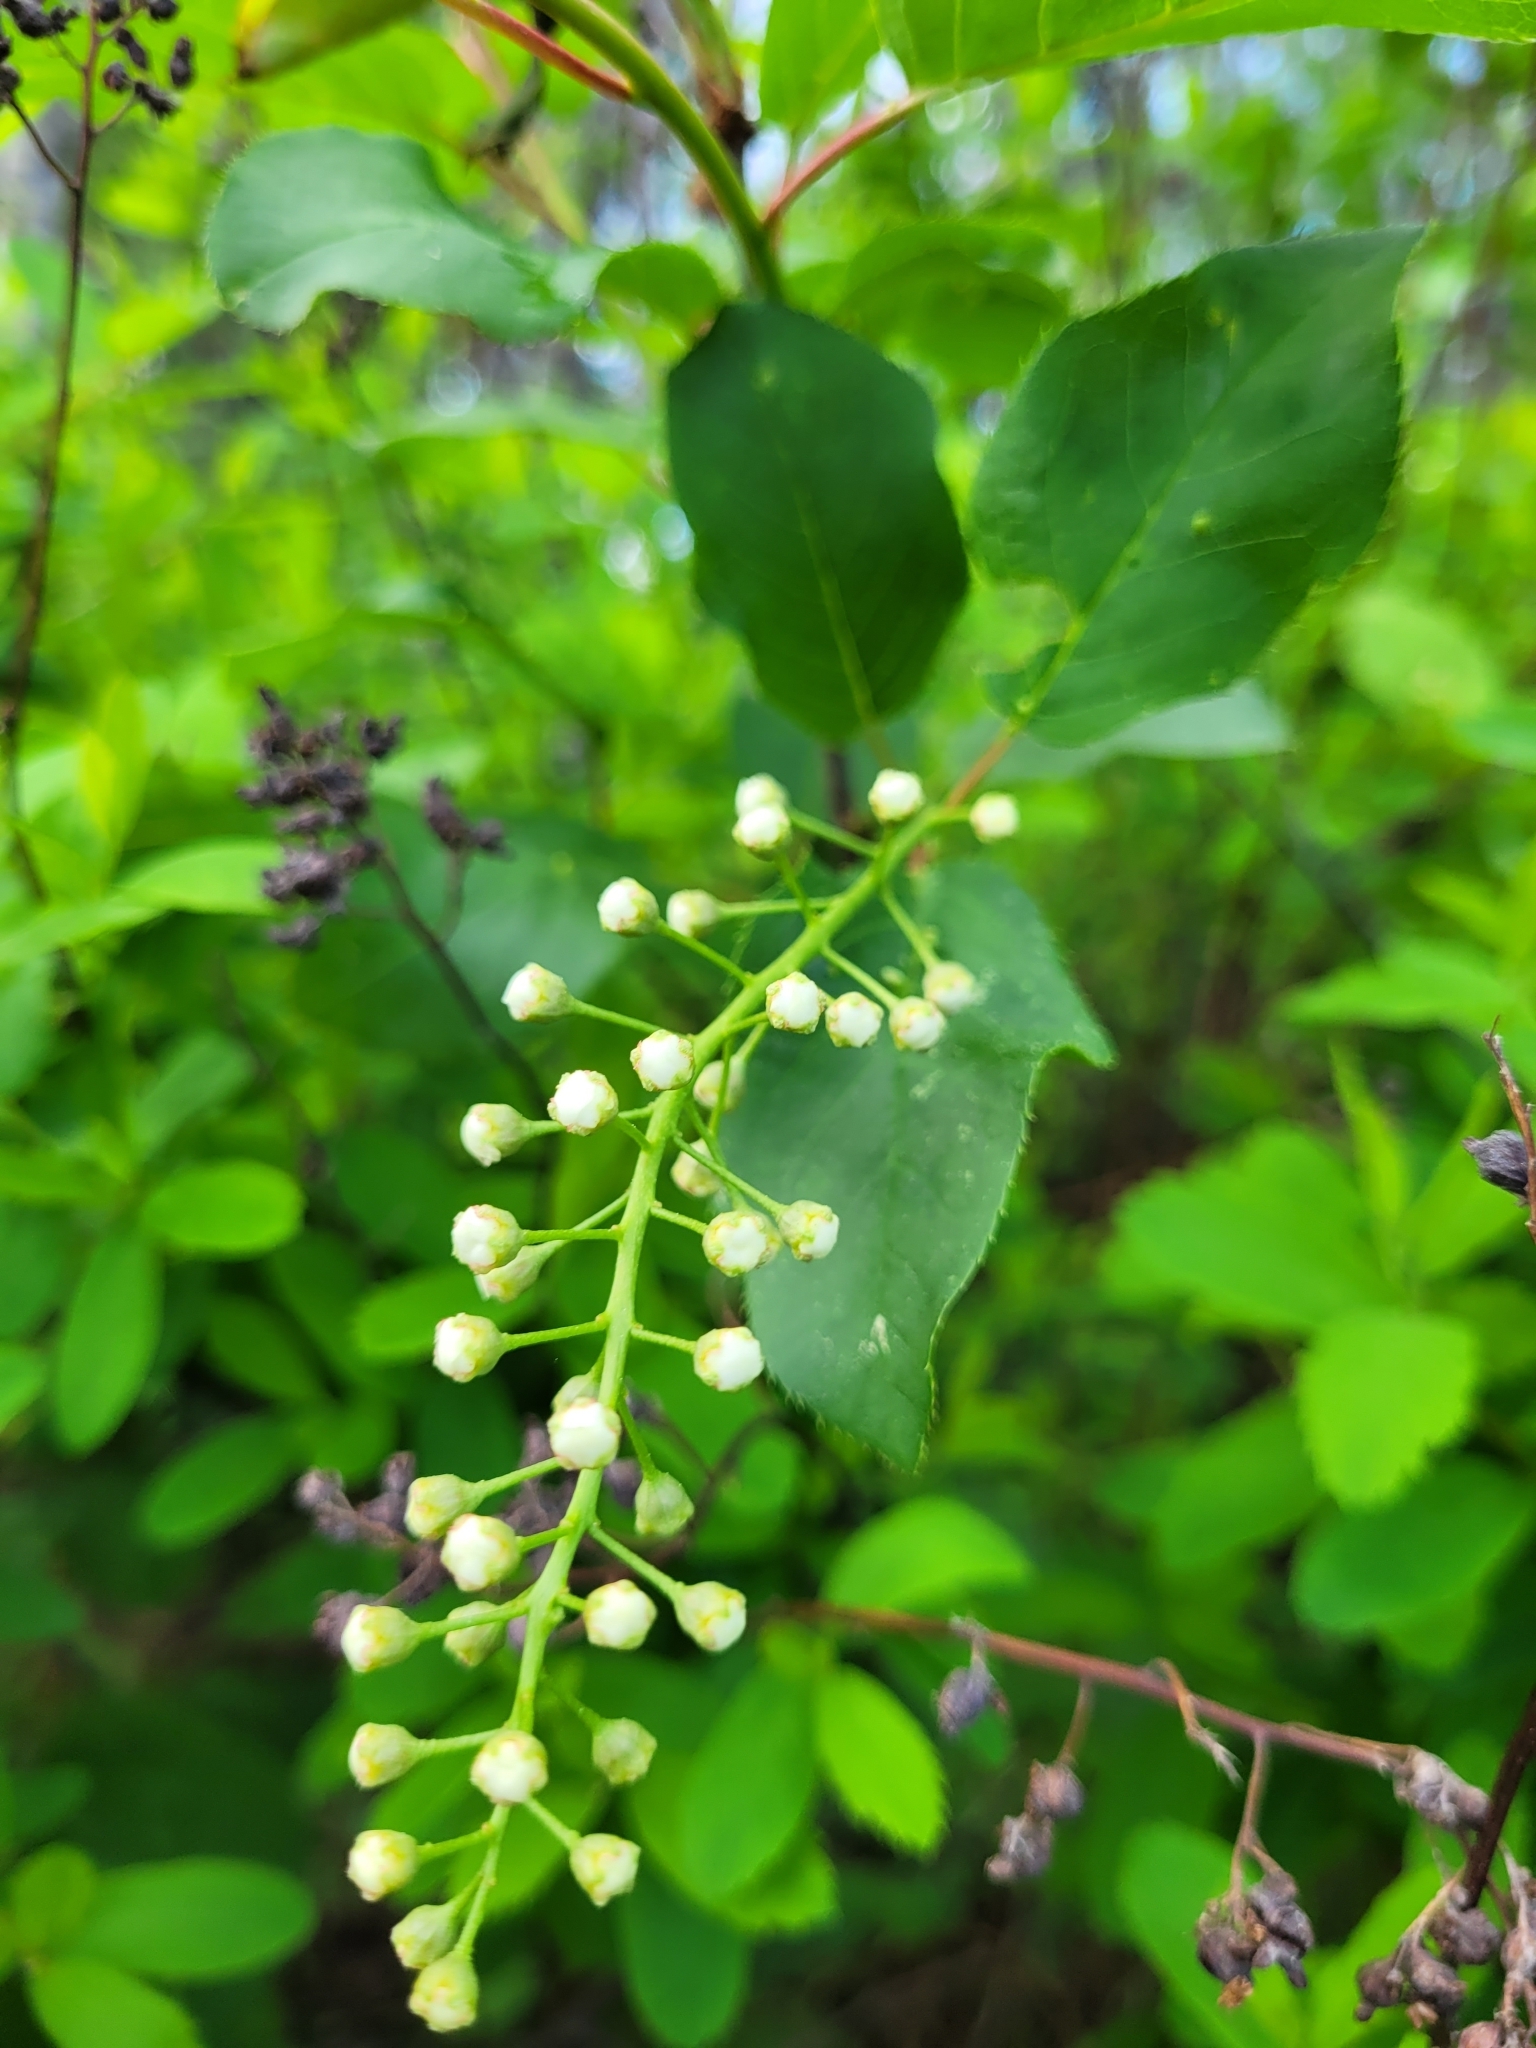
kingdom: Plantae
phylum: Tracheophyta
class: Magnoliopsida
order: Rosales
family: Rosaceae
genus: Prunus
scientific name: Prunus virginiana
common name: Chokecherry
